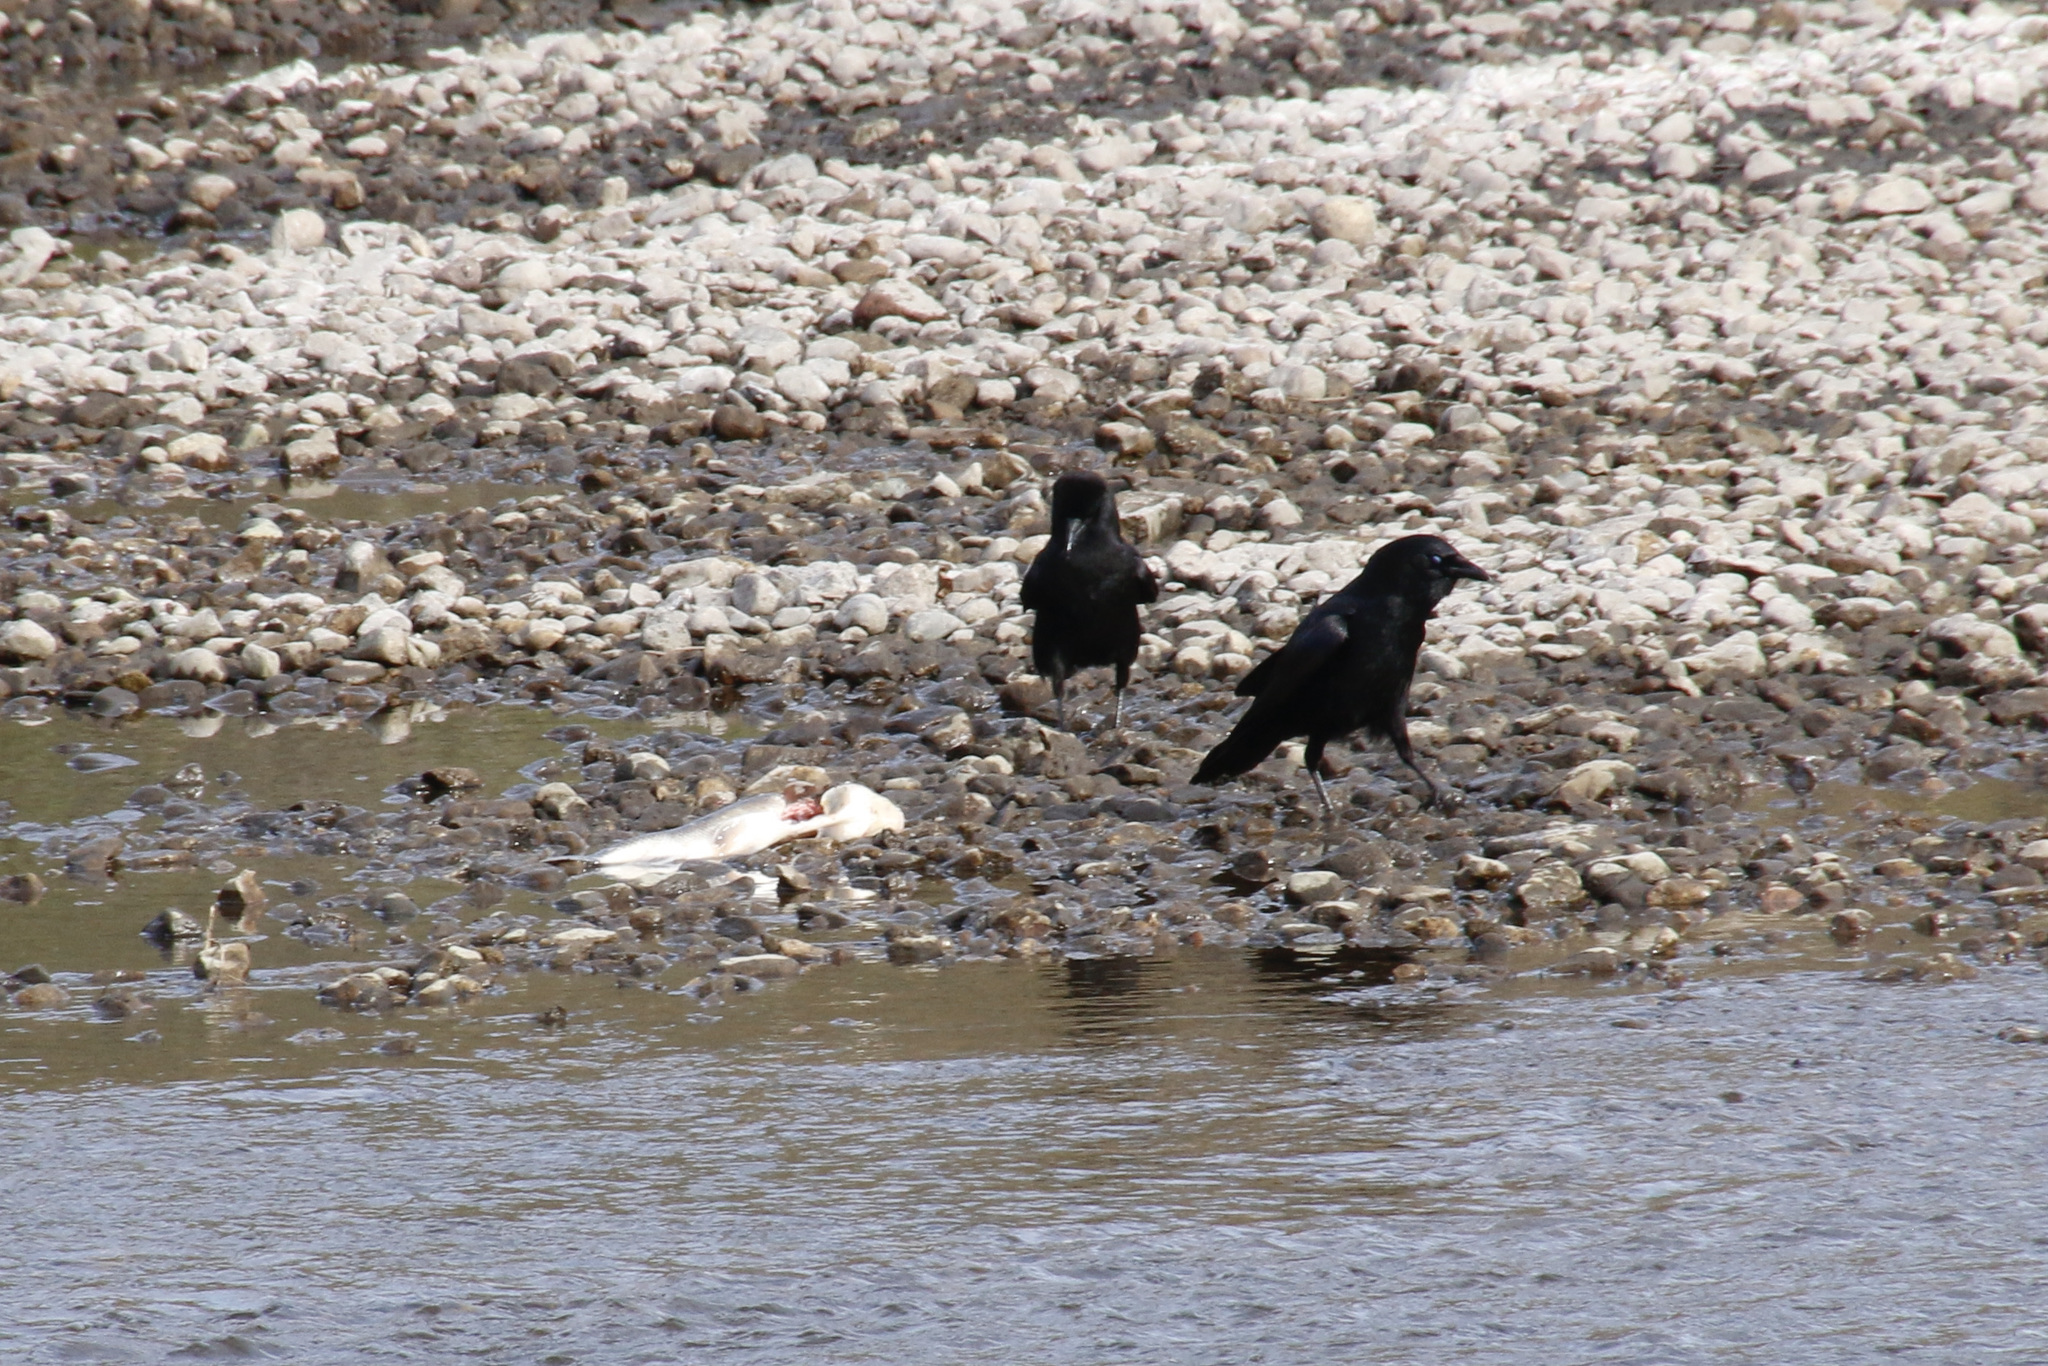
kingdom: Animalia
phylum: Chordata
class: Aves
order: Passeriformes
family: Corvidae
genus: Corvus
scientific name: Corvus brachyrhynchos
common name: American crow
